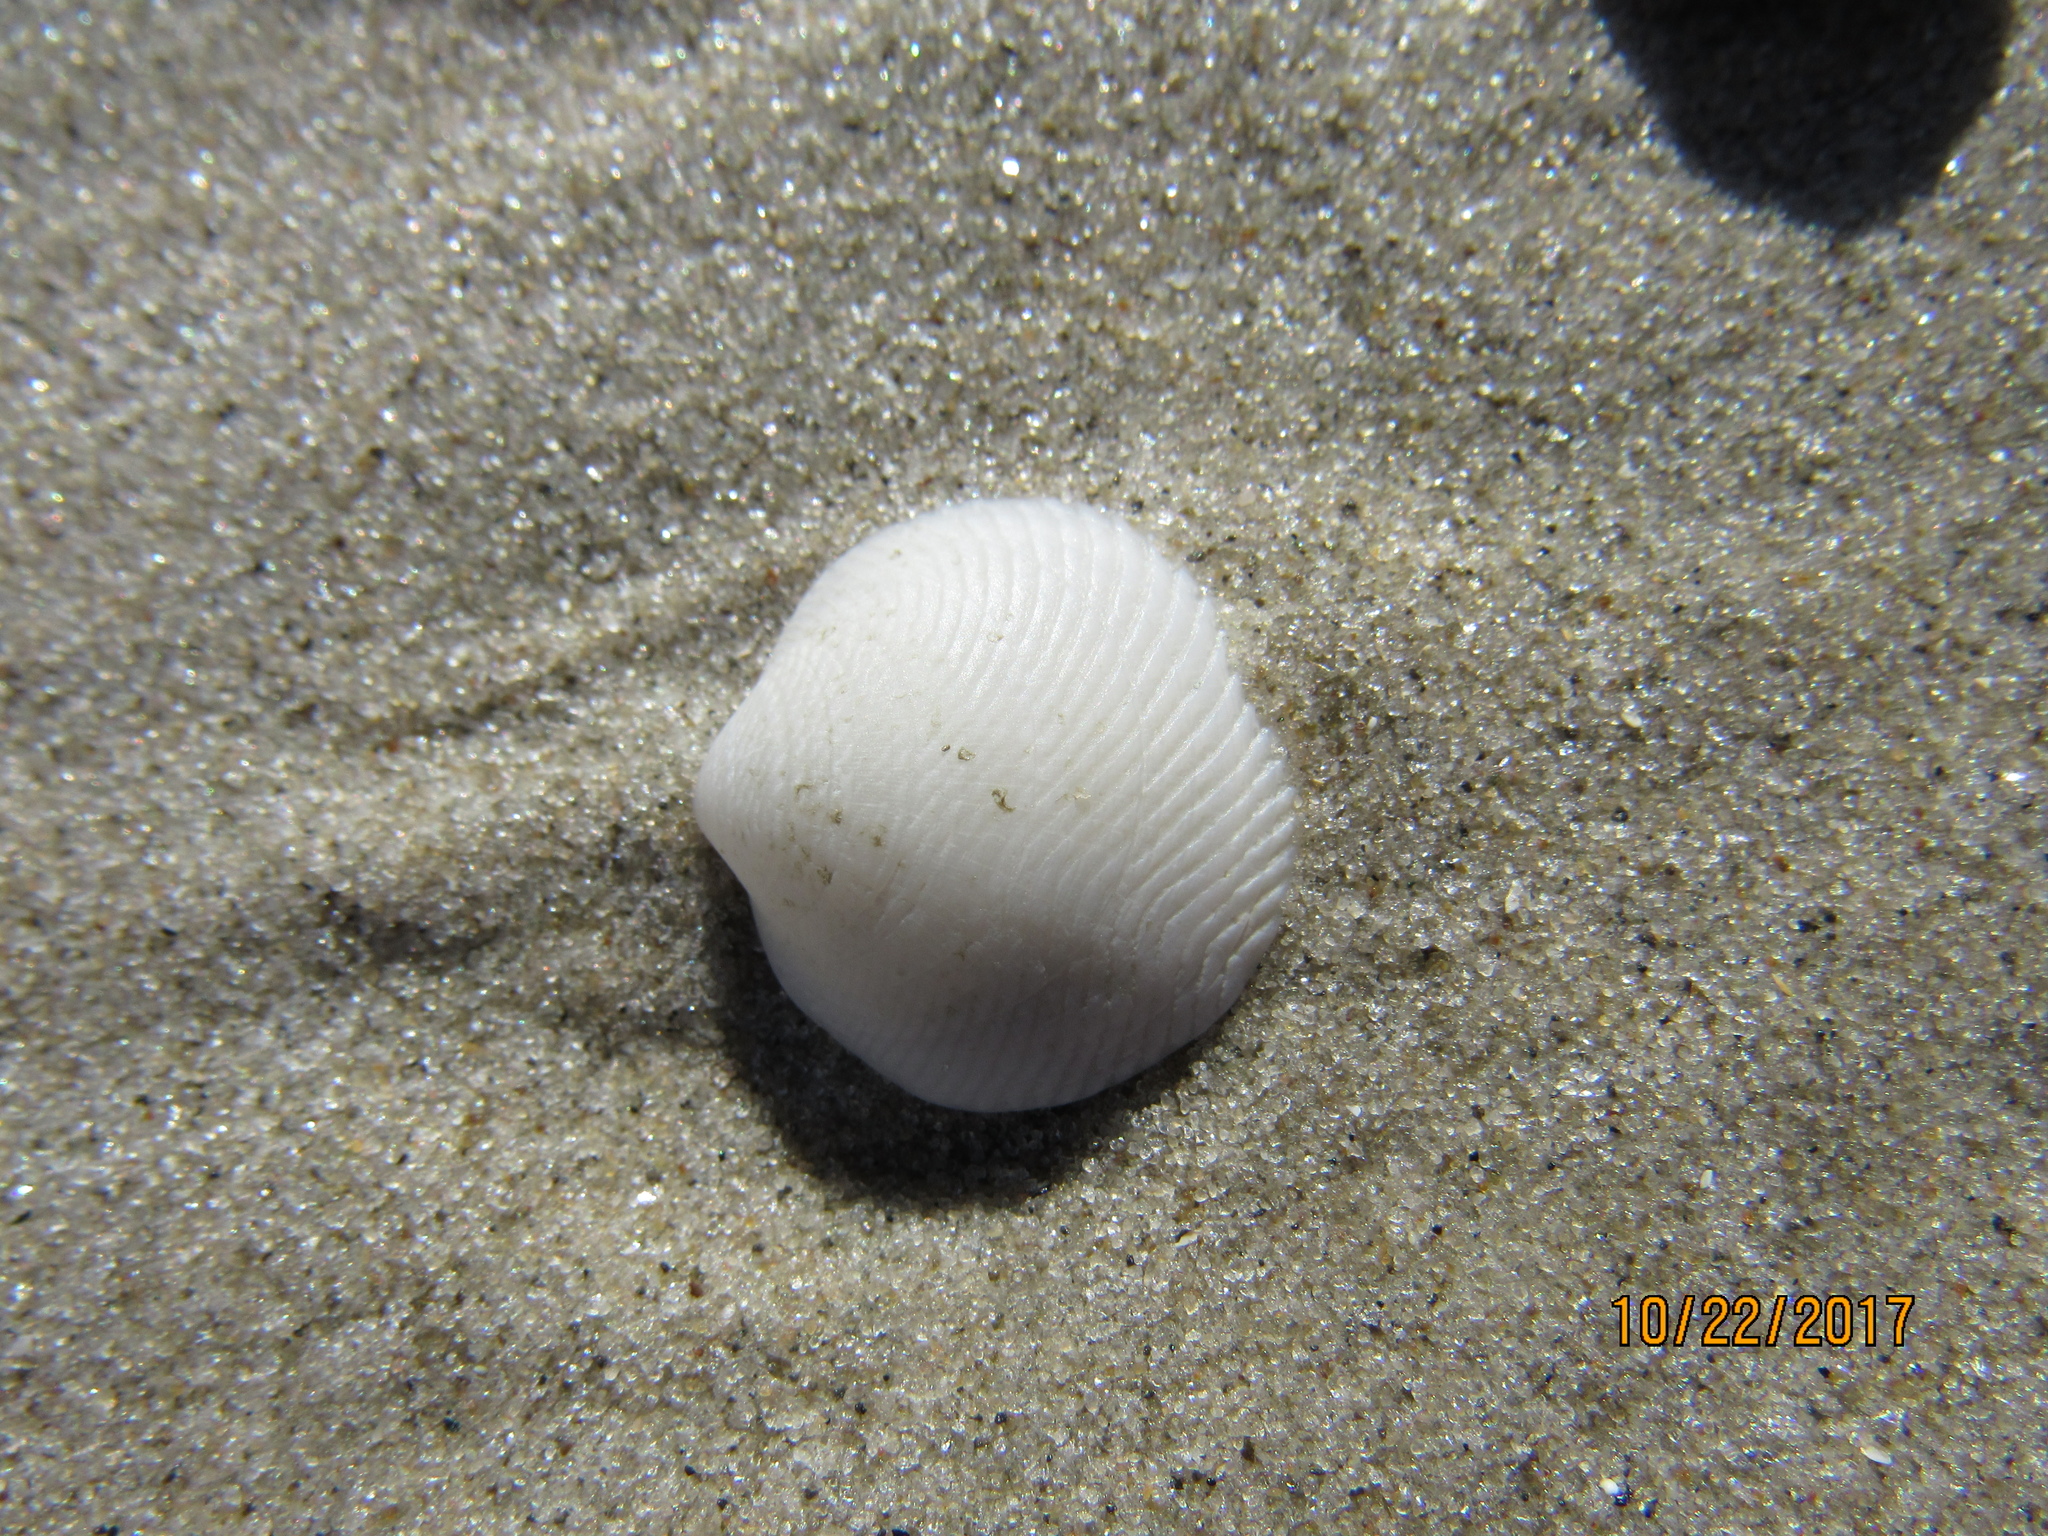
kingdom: Animalia
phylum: Mollusca
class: Bivalvia
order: Lucinida
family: Lucinidae
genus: Divalinga
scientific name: Divalinga quadrisulcata
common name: Cross-hatched lucine
